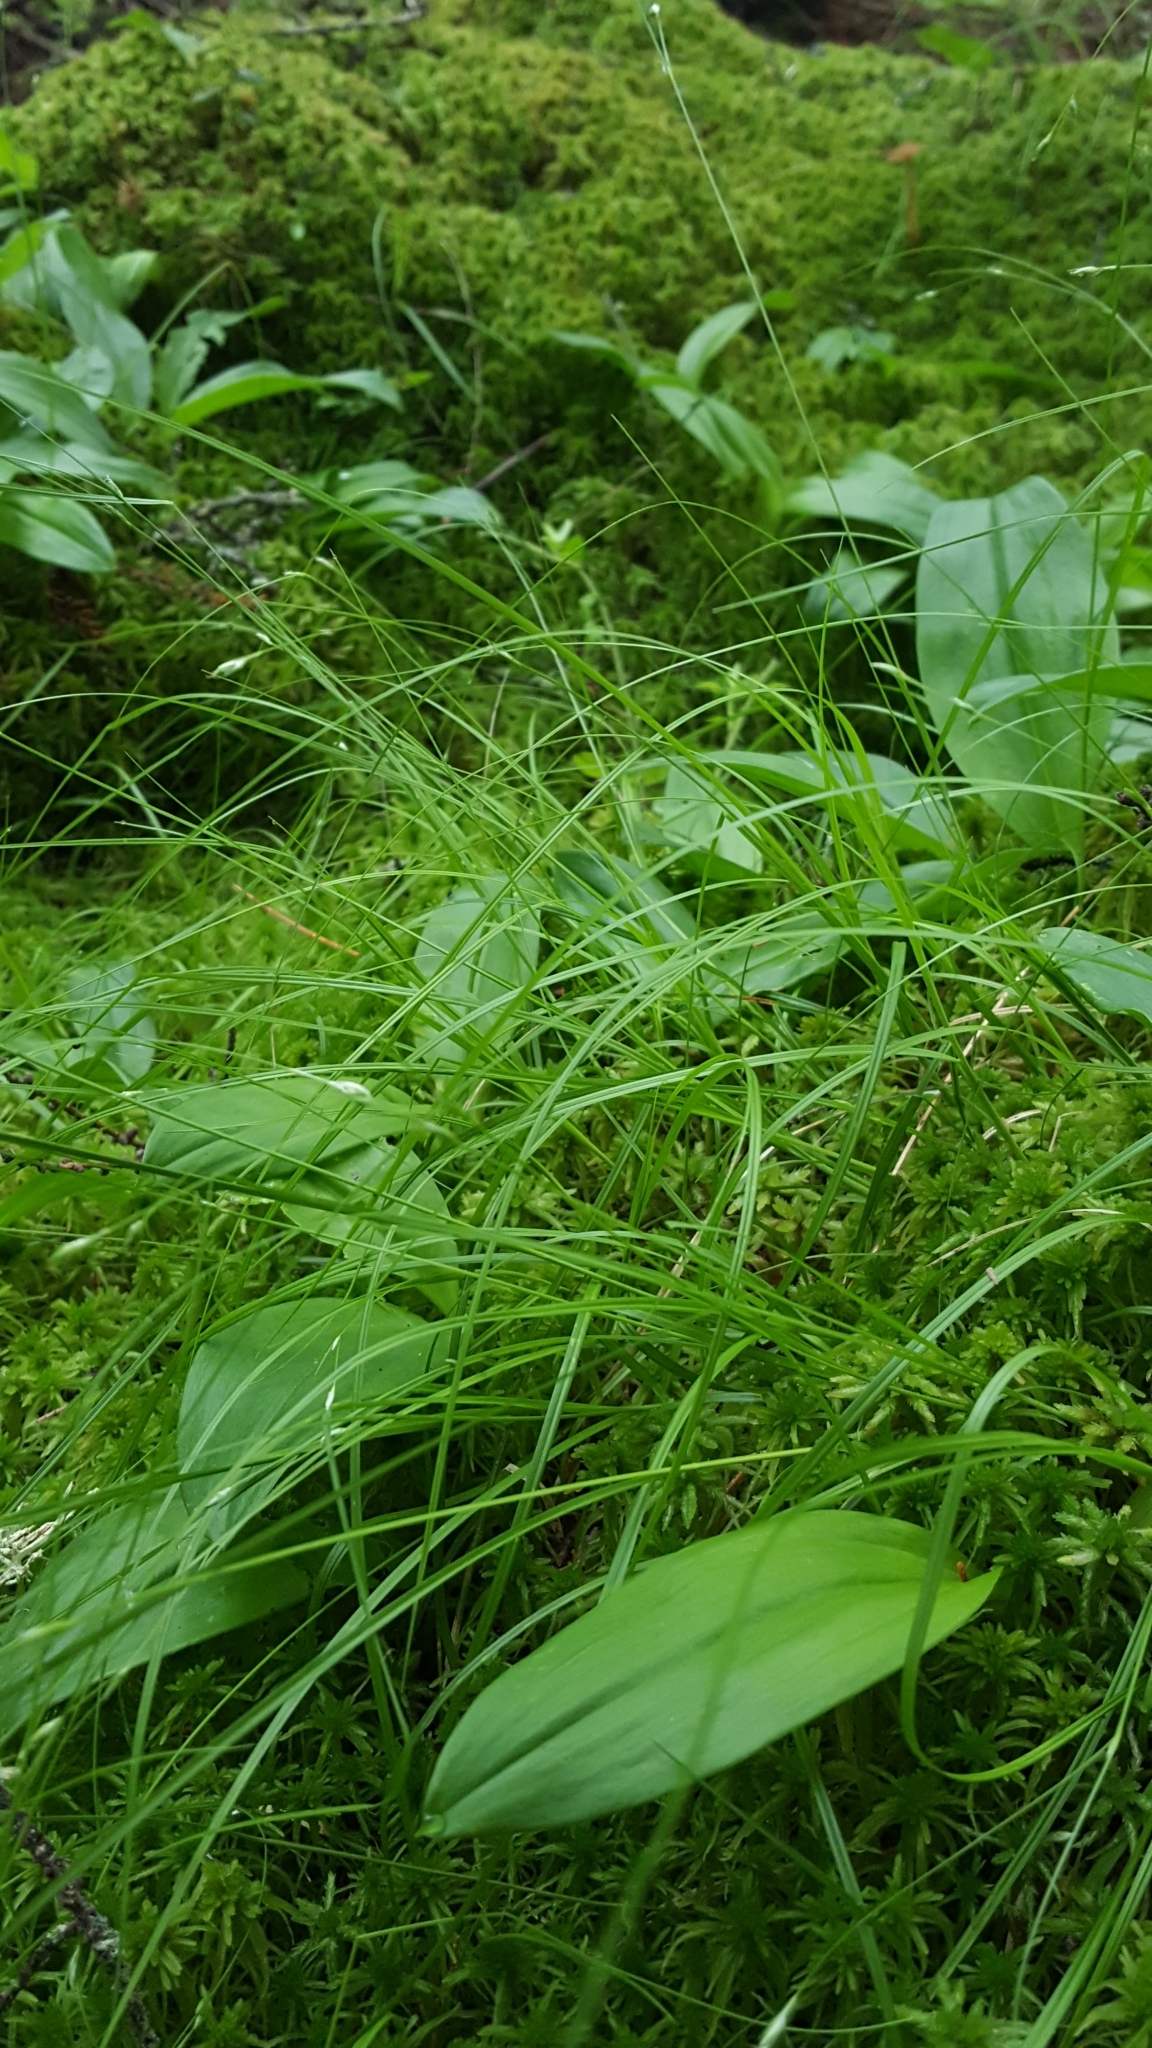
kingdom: Plantae
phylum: Tracheophyta
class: Liliopsida
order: Poales
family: Cyperaceae
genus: Carex
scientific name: Carex trisperma
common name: Three-seeded sedge
